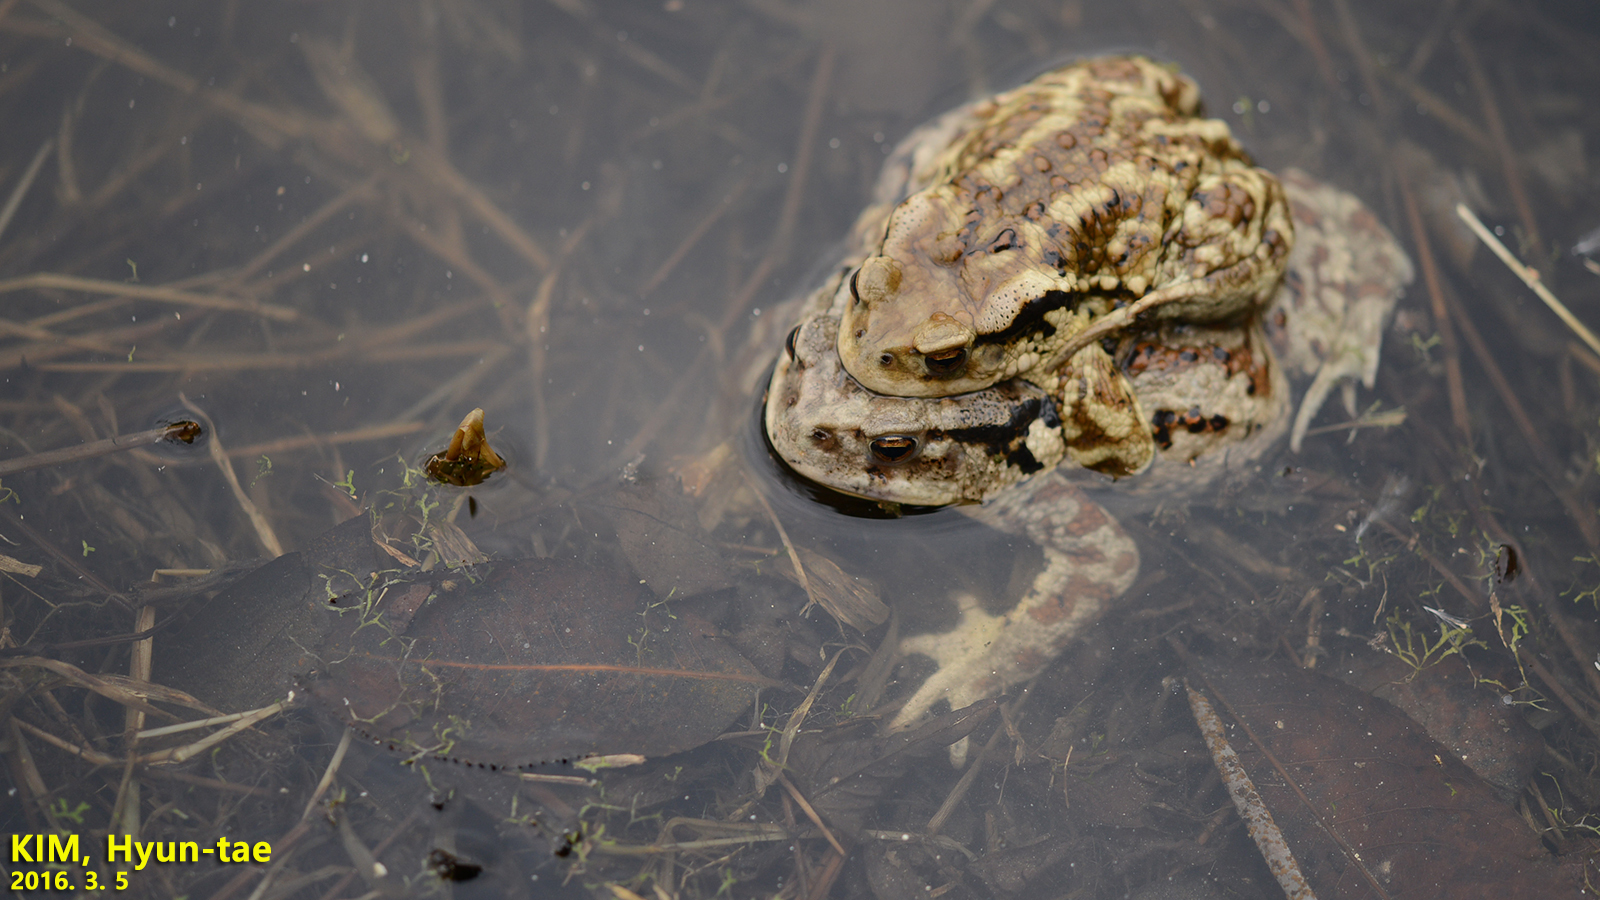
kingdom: Animalia
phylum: Chordata
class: Amphibia
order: Anura
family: Bufonidae
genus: Bufo
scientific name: Bufo gargarizans
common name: Asiatic toad
